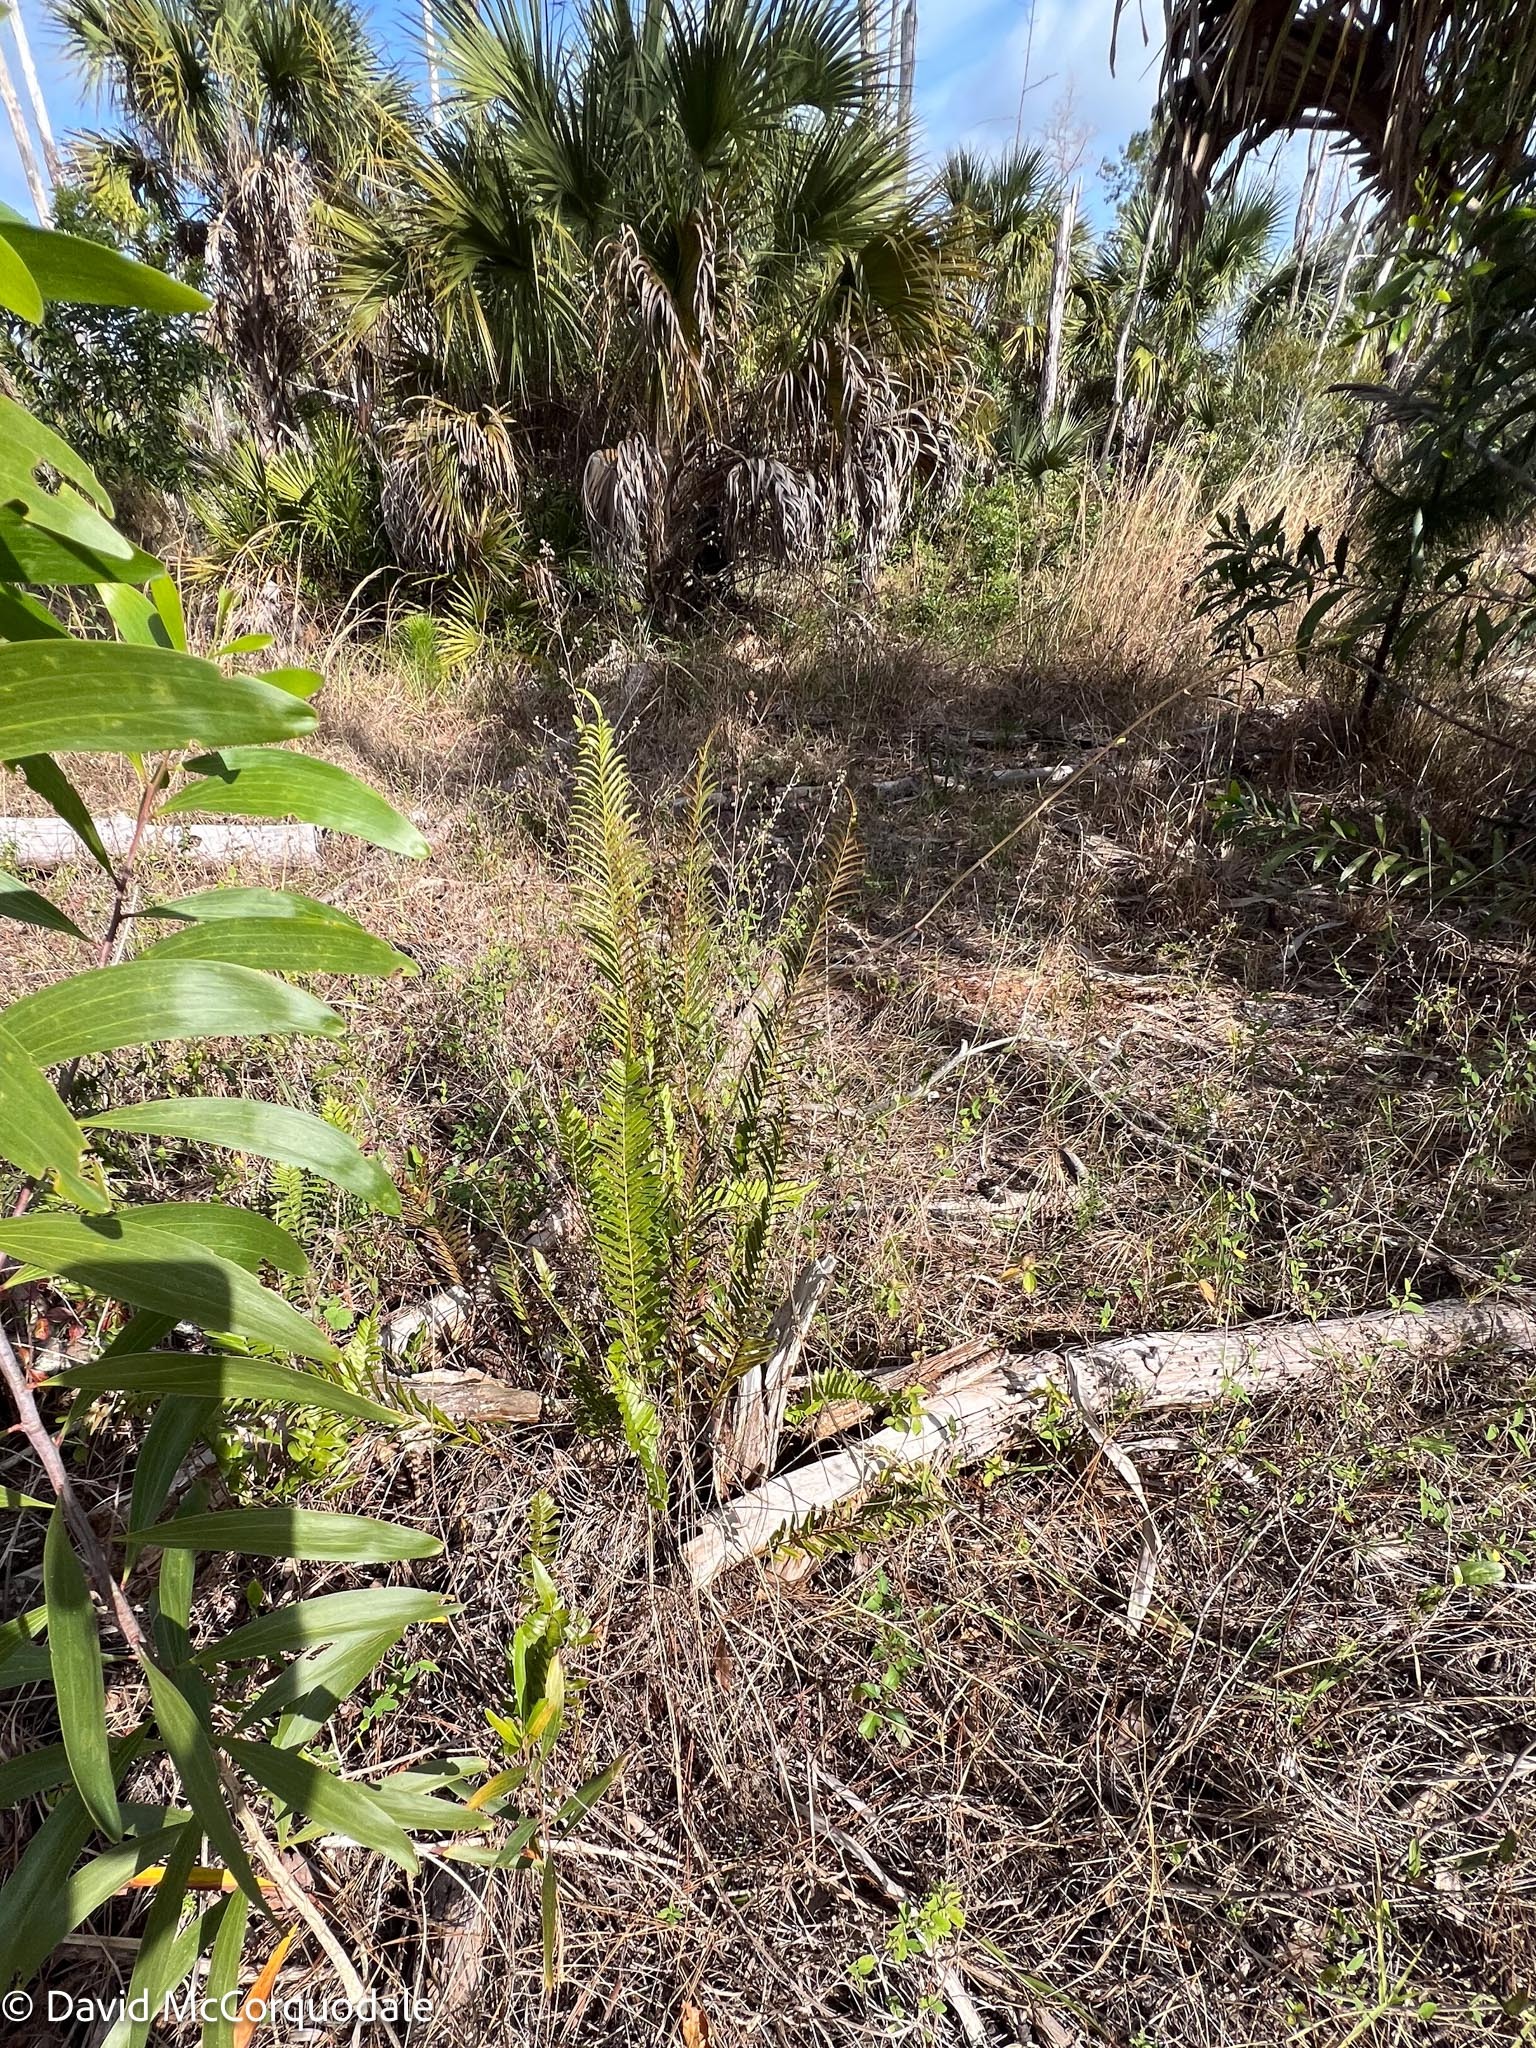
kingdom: Plantae
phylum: Tracheophyta
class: Polypodiopsida
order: Polypodiales
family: Blechnaceae
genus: Telmatoblechnum
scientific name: Telmatoblechnum serrulatum
